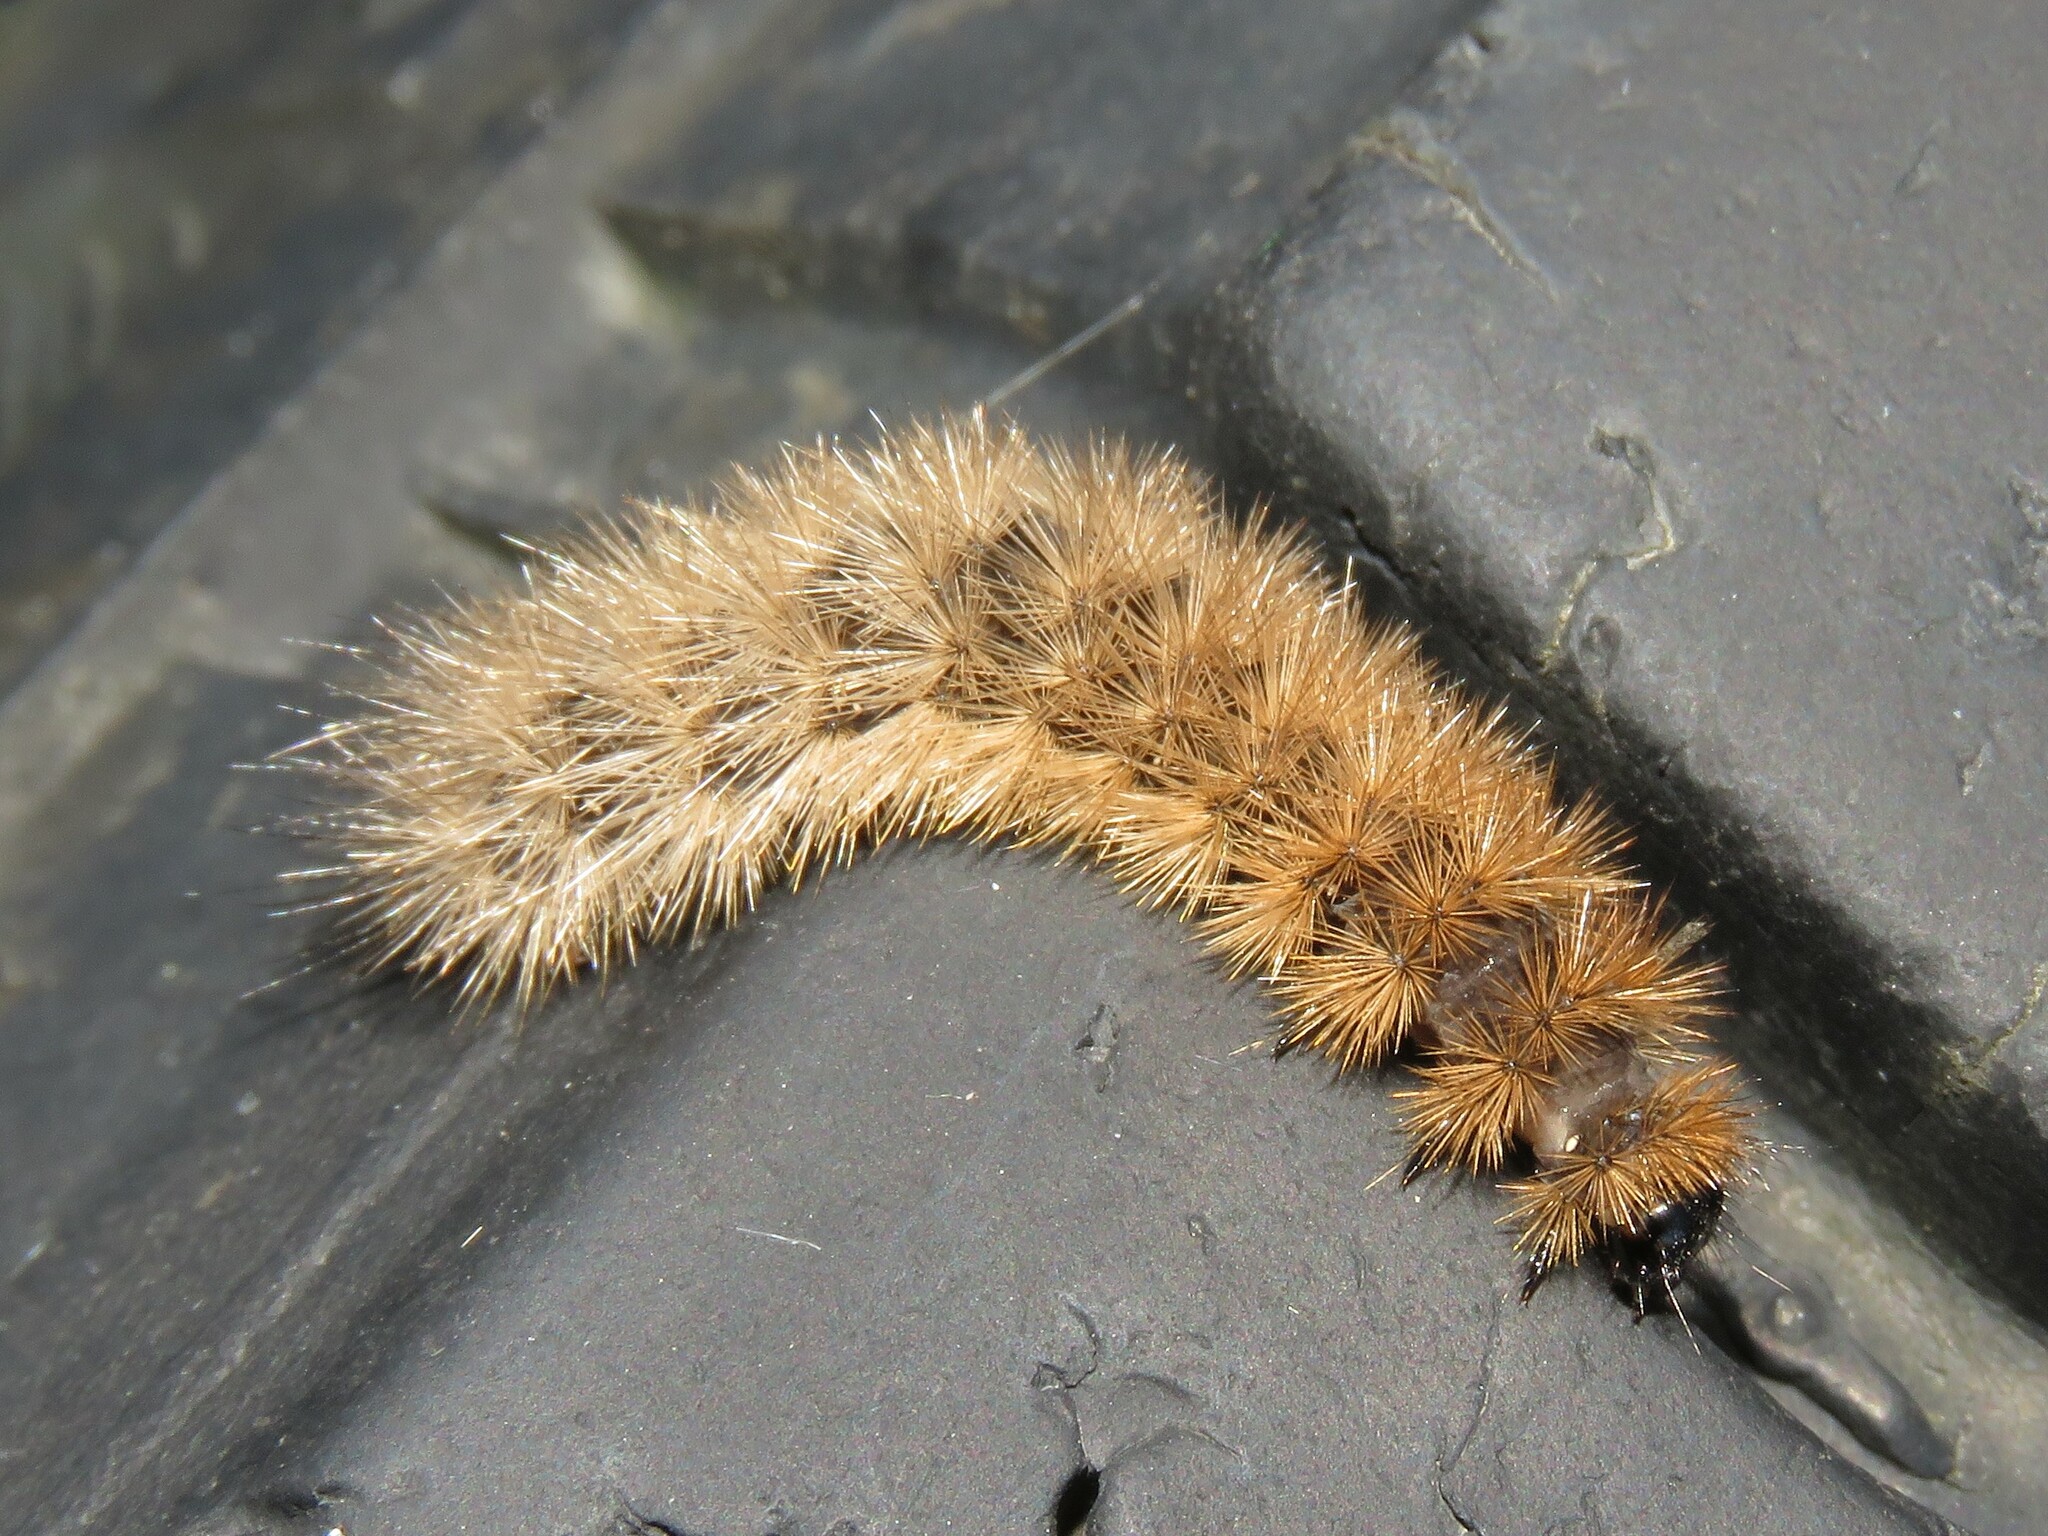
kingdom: Animalia
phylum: Arthropoda
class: Insecta
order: Lepidoptera
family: Erebidae
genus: Phragmatobia
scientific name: Phragmatobia fuliginosa
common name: Ruby tiger
